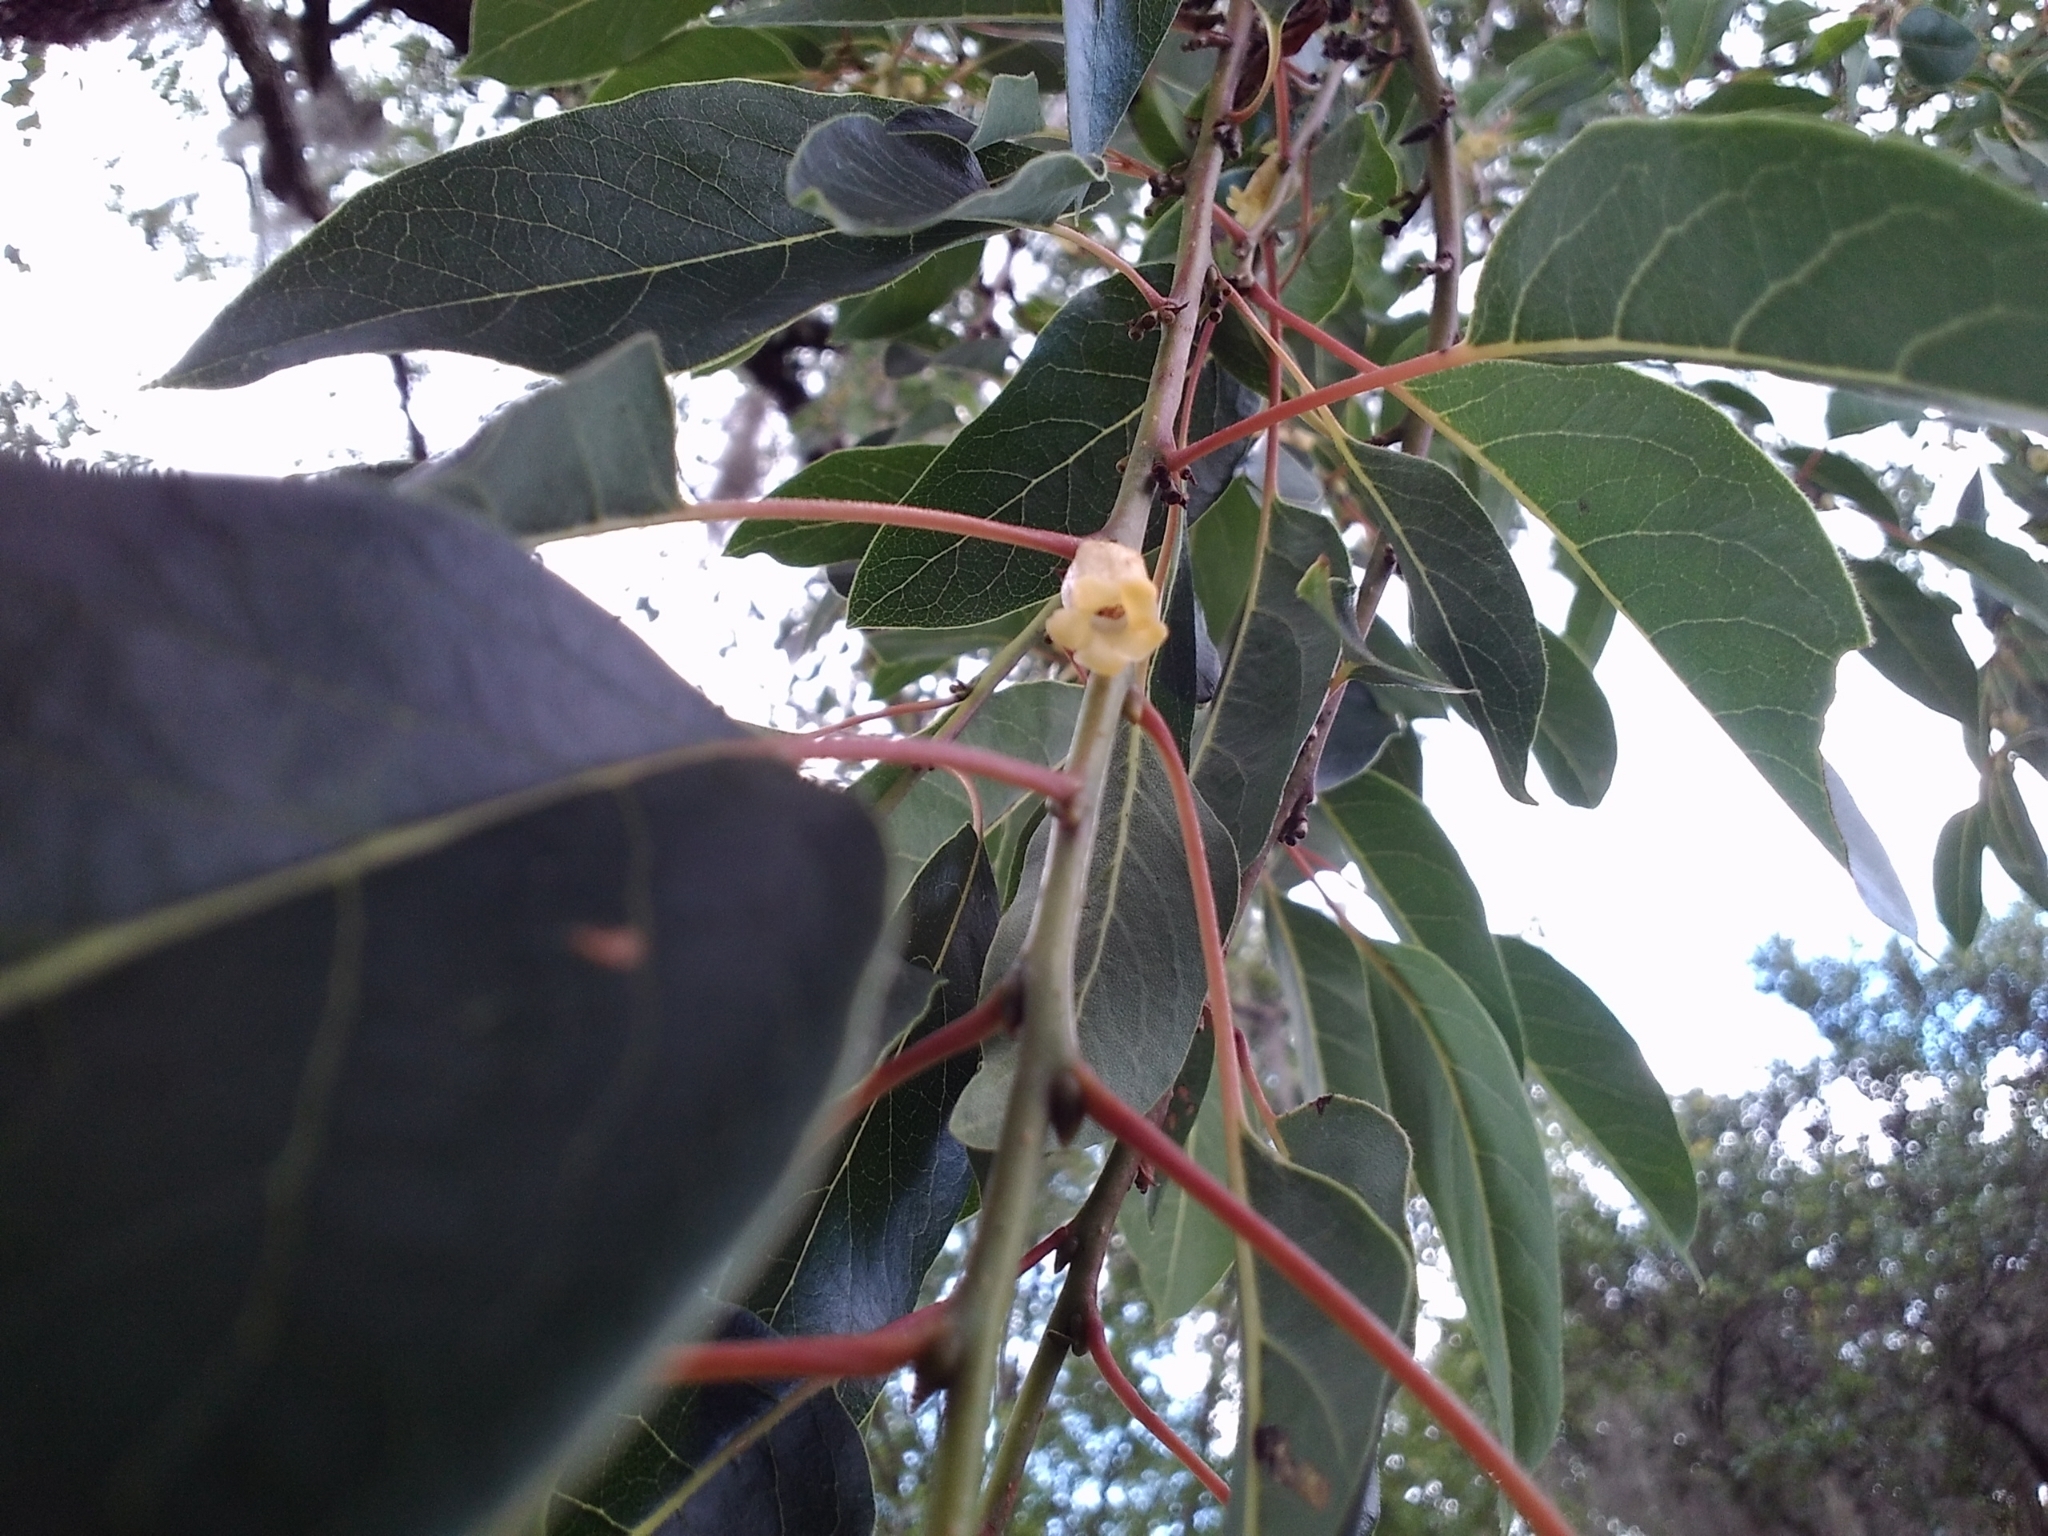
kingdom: Plantae
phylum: Tracheophyta
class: Magnoliopsida
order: Ericales
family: Ebenaceae
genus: Diospyros
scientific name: Diospyros virginiana
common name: Persimmon
